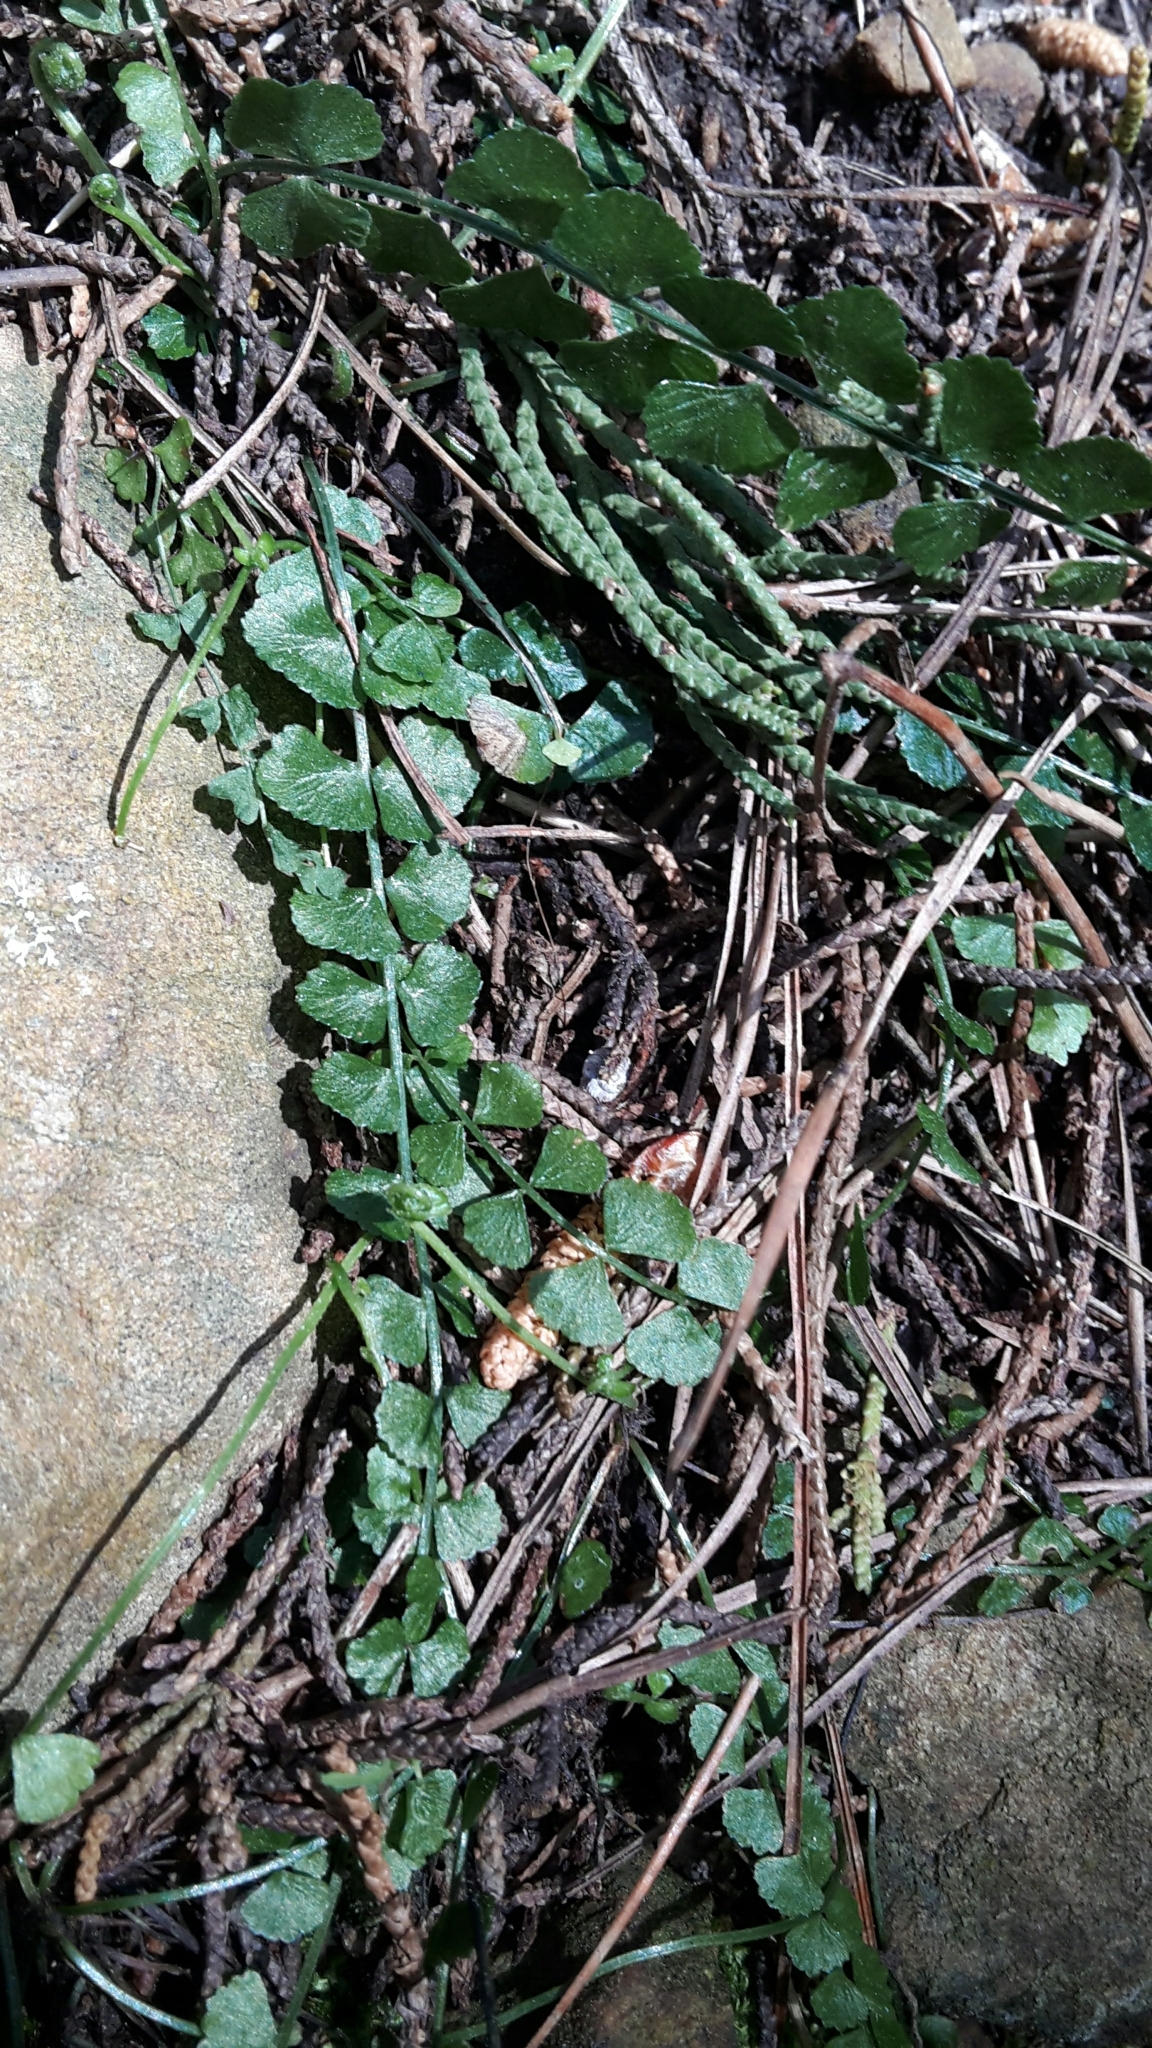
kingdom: Plantae
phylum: Tracheophyta
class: Polypodiopsida
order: Polypodiales
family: Aspleniaceae
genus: Asplenium
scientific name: Asplenium flabellifolium
